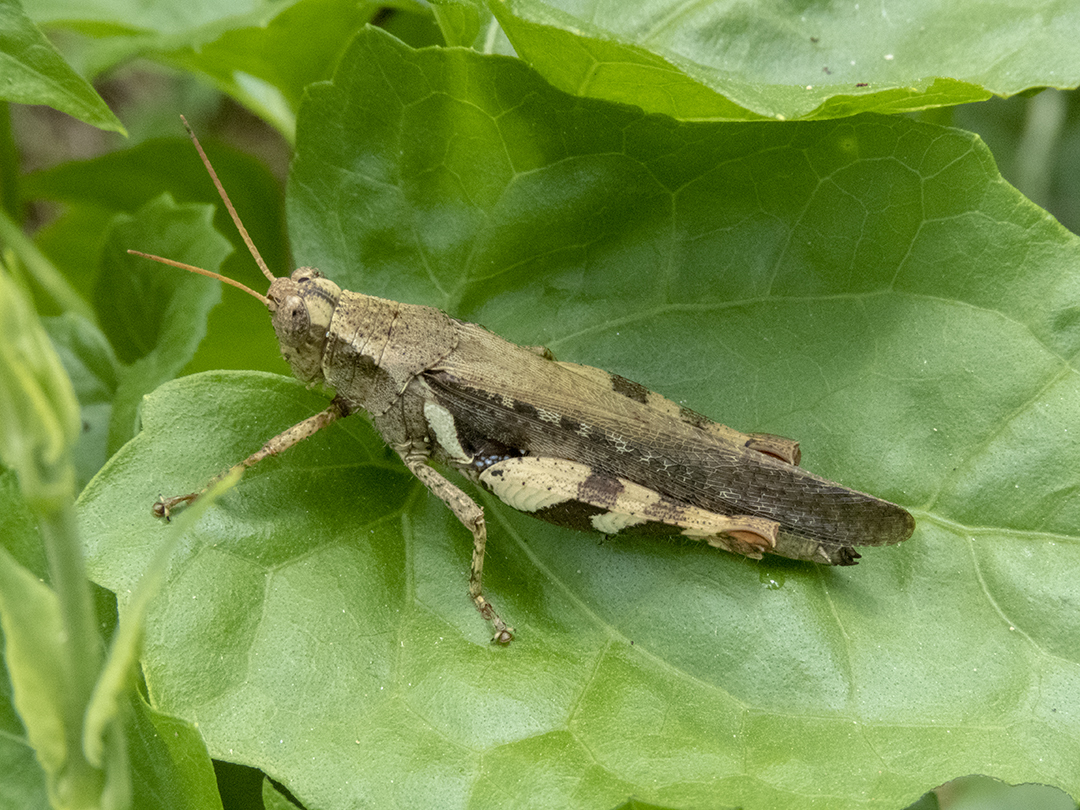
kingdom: Animalia
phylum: Arthropoda
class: Insecta
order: Orthoptera
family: Acrididae
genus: Xenocatantops
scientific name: Xenocatantops humile
